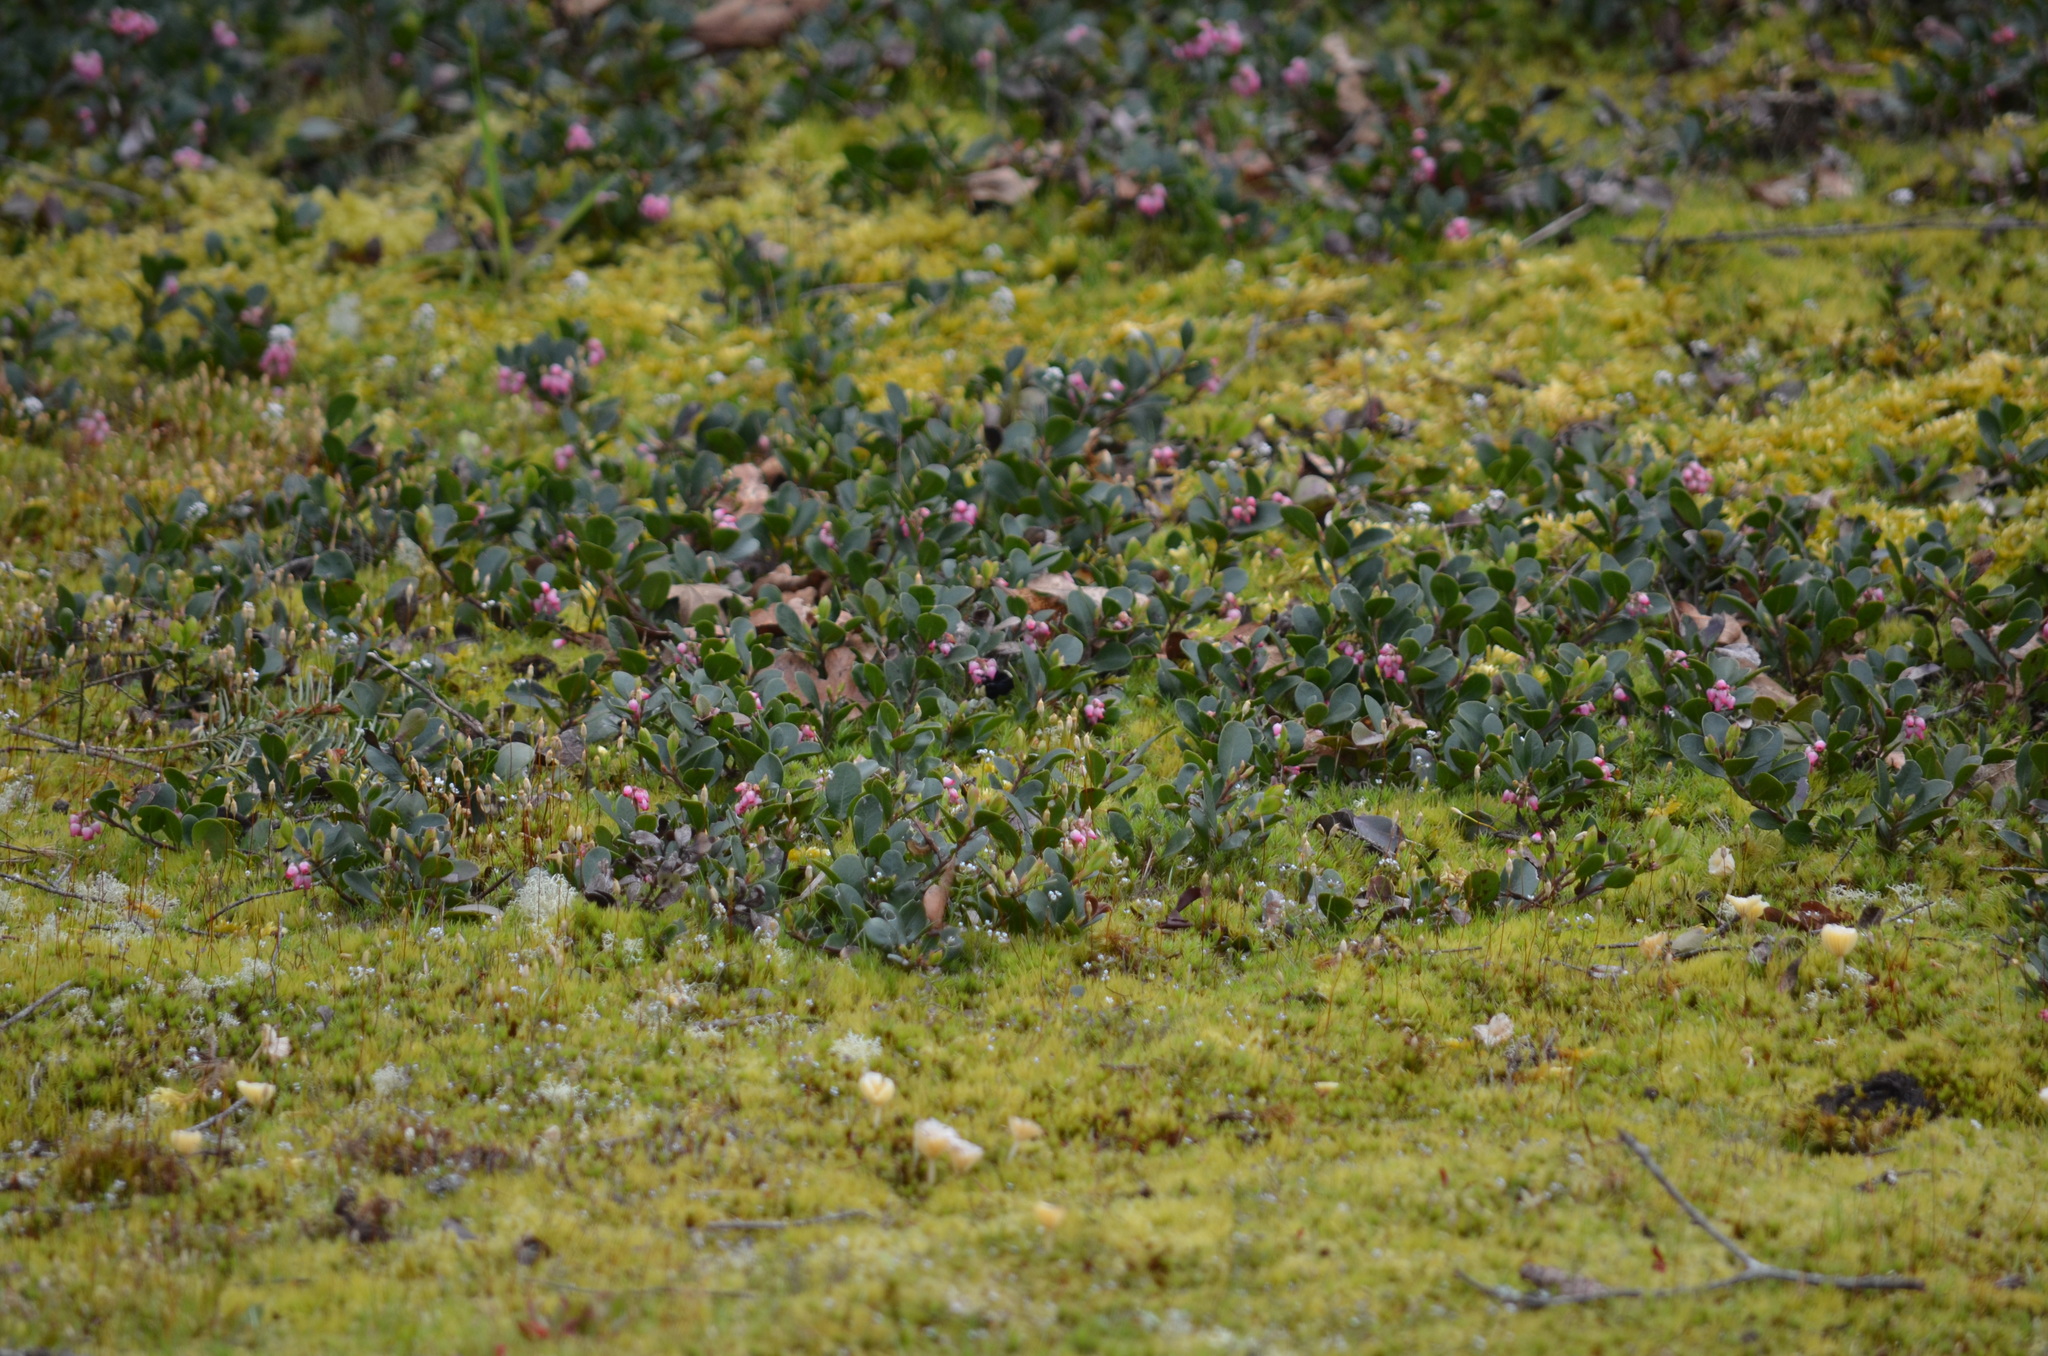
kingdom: Plantae
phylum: Tracheophyta
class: Magnoliopsida
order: Ericales
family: Ericaceae
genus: Arctostaphylos
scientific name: Arctostaphylos uva-ursi
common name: Bearberry
